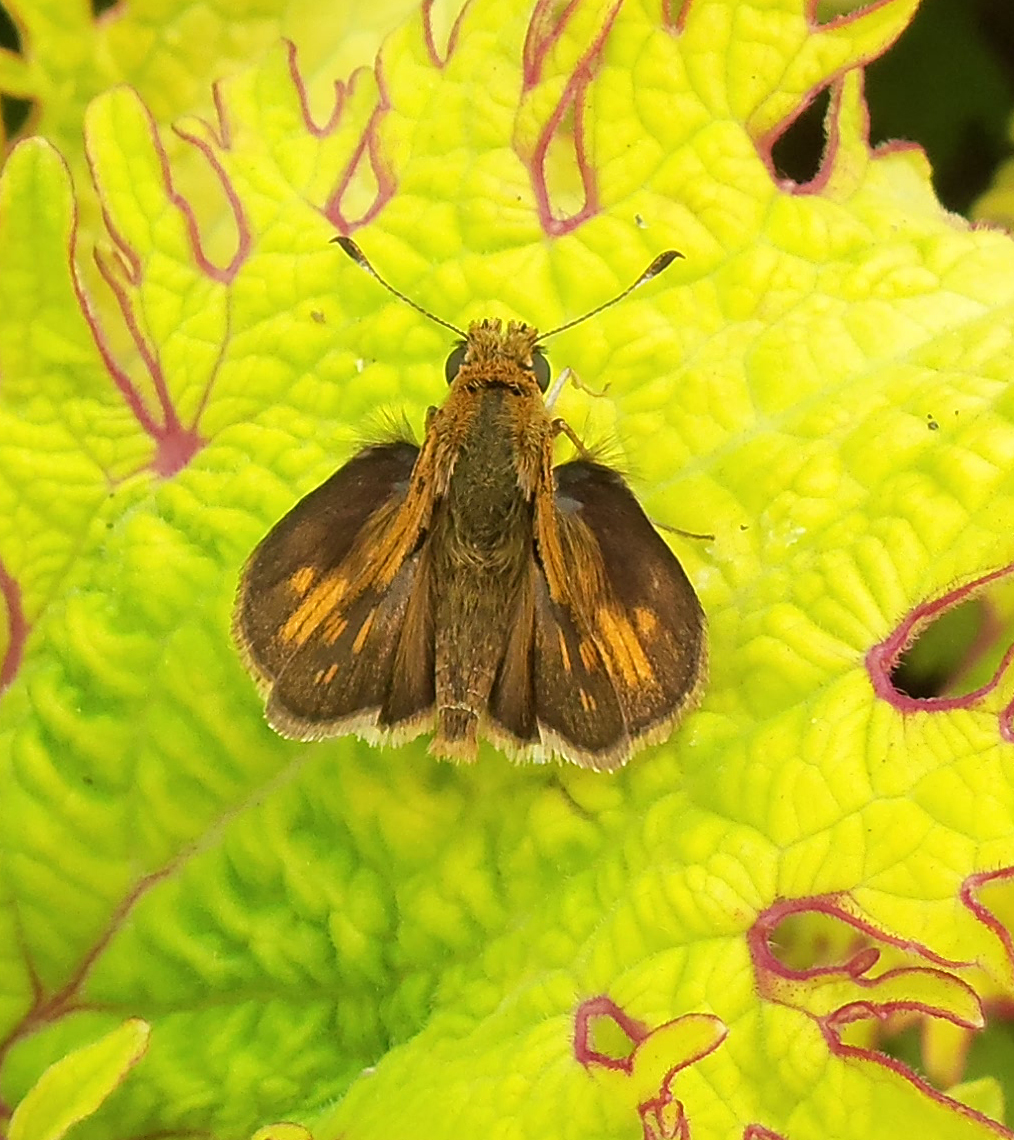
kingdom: Animalia
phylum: Arthropoda
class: Insecta
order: Lepidoptera
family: Hesperiidae
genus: Polites
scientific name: Polites coras
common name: Peck's skipper
